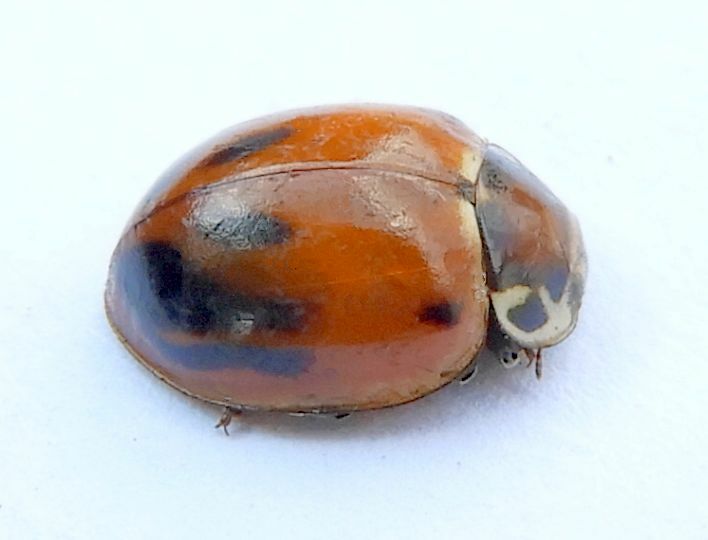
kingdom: Animalia
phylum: Arthropoda
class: Insecta
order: Coleoptera
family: Coccinellidae
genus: Myzia
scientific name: Myzia pullata
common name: Streaked lady beetle
